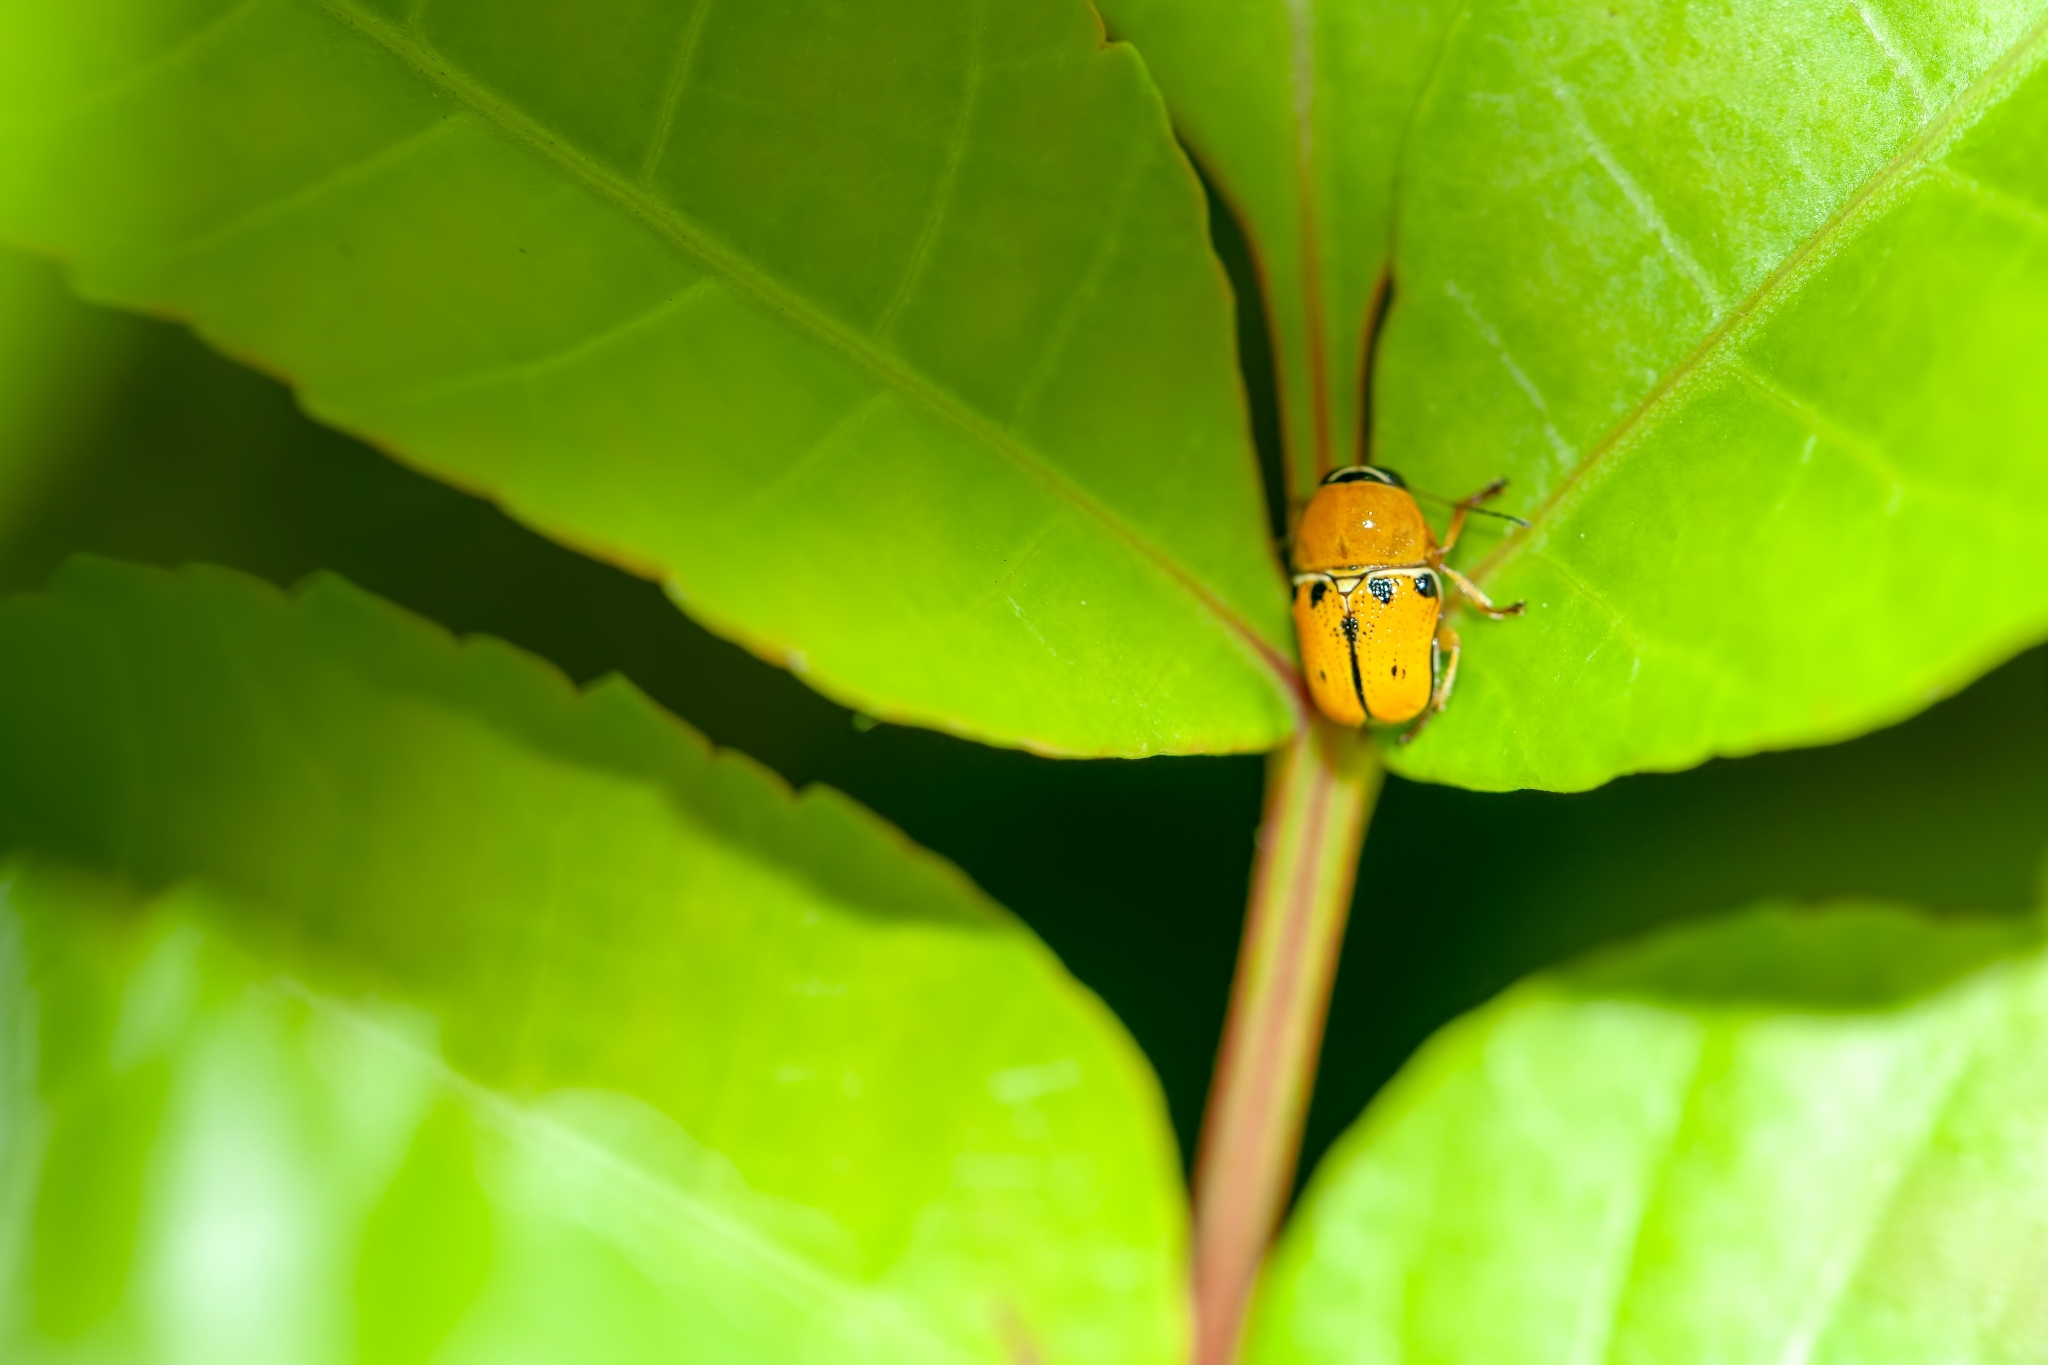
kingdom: Animalia
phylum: Arthropoda
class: Insecta
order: Coleoptera
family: Chrysomelidae
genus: Griburius
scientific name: Griburius larvatus
